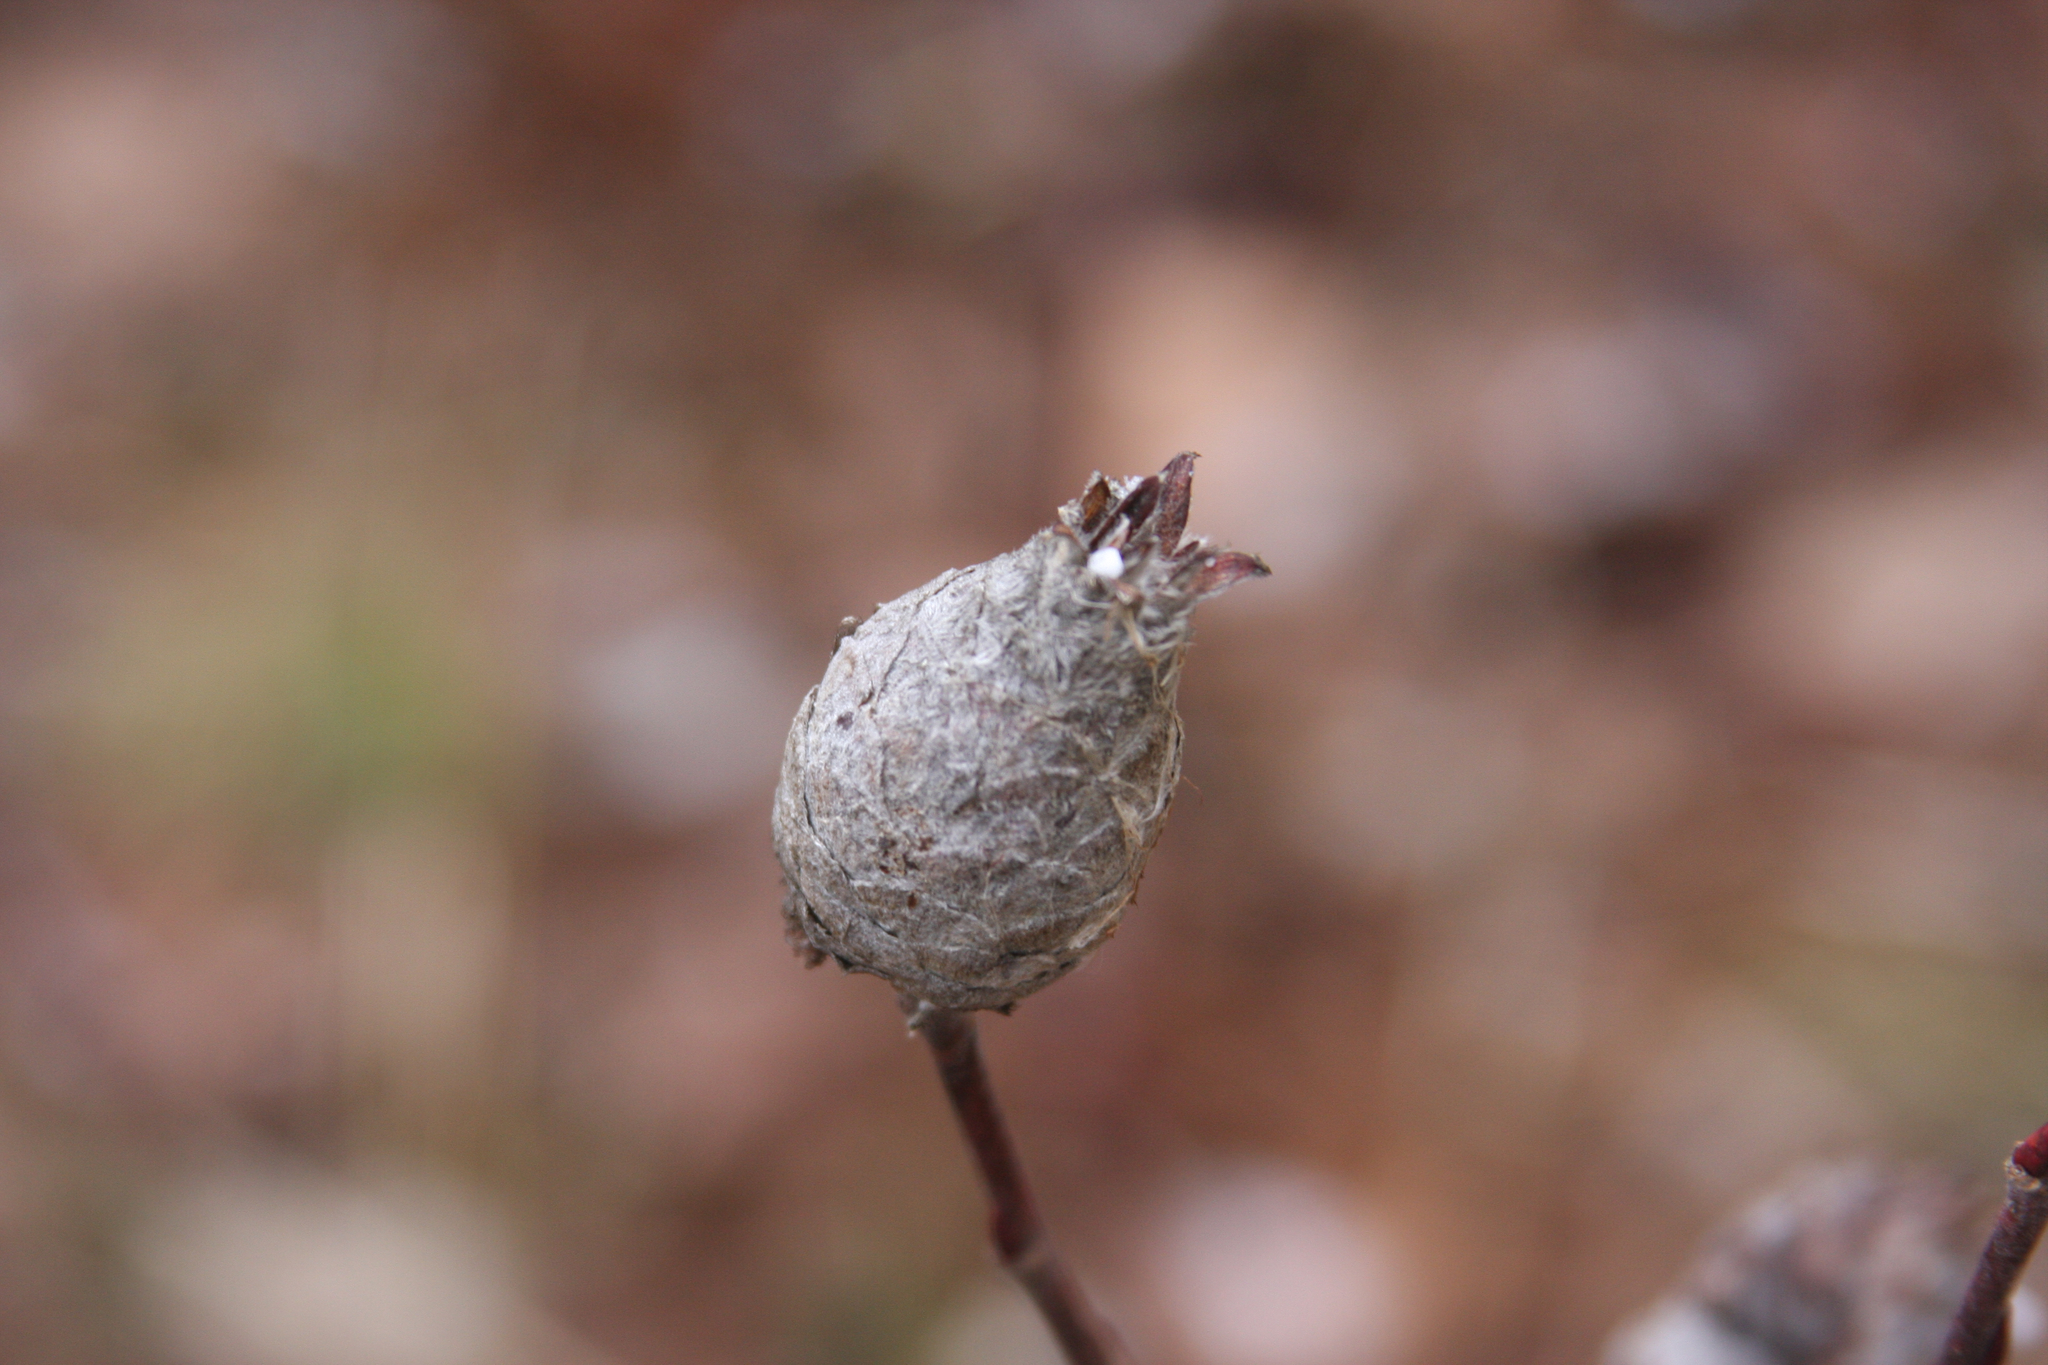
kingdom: Animalia
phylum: Arthropoda
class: Insecta
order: Diptera
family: Cecidomyiidae
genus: Rabdophaga
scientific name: Rabdophaga strobiloides
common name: Willow pinecone gall midge
